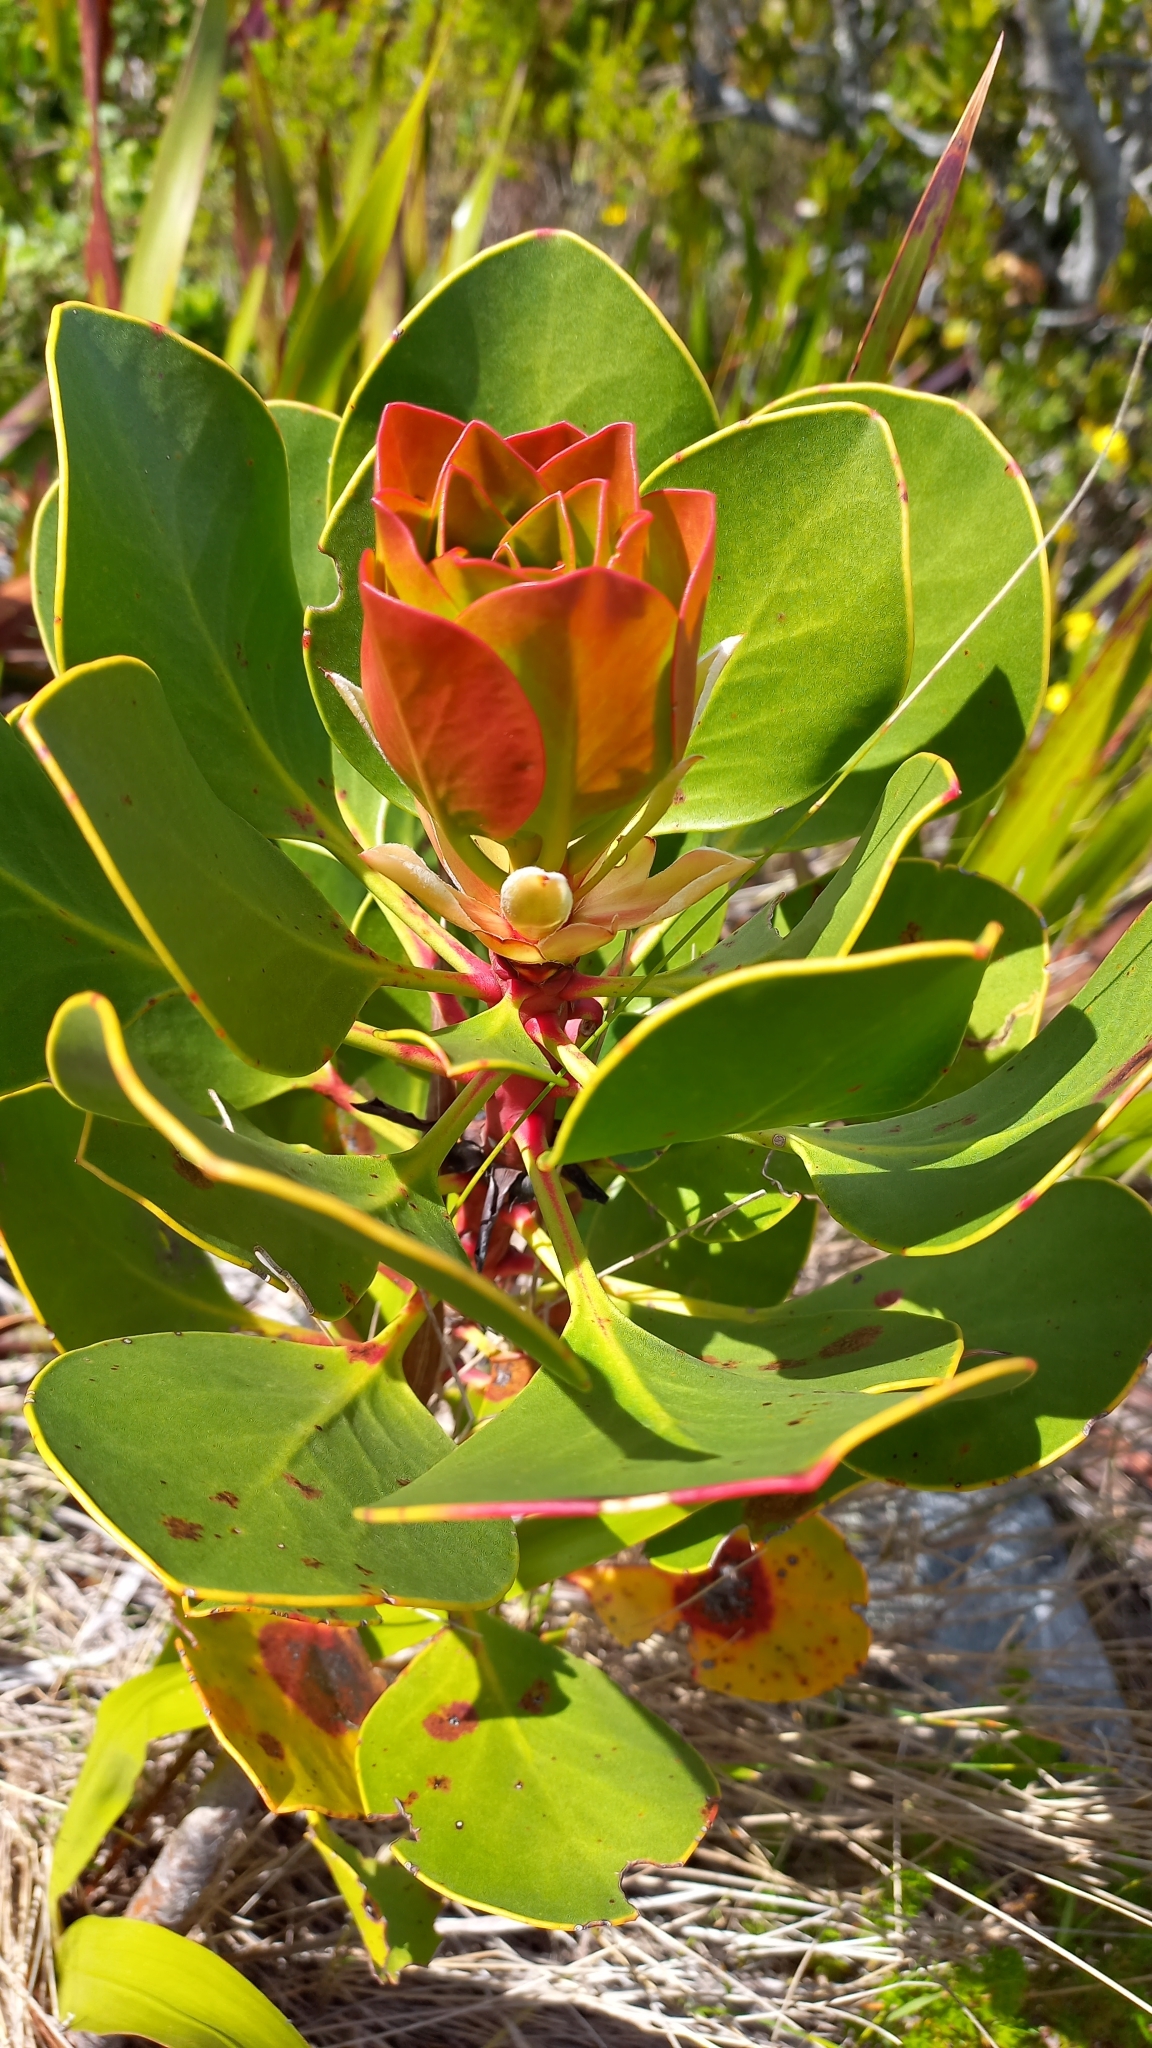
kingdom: Plantae
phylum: Tracheophyta
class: Magnoliopsida
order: Proteales
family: Proteaceae
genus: Protea
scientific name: Protea cynaroides
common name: King protea
